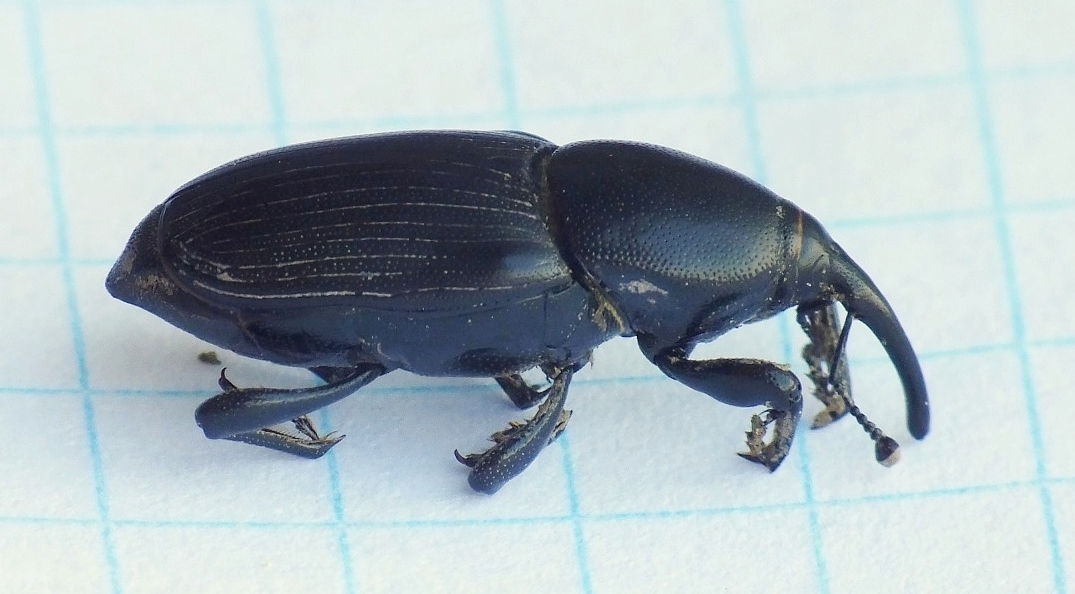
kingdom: Animalia
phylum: Arthropoda
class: Insecta
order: Coleoptera
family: Dryophthoridae
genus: Sphenophorus
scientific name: Sphenophorus abbreviatus
